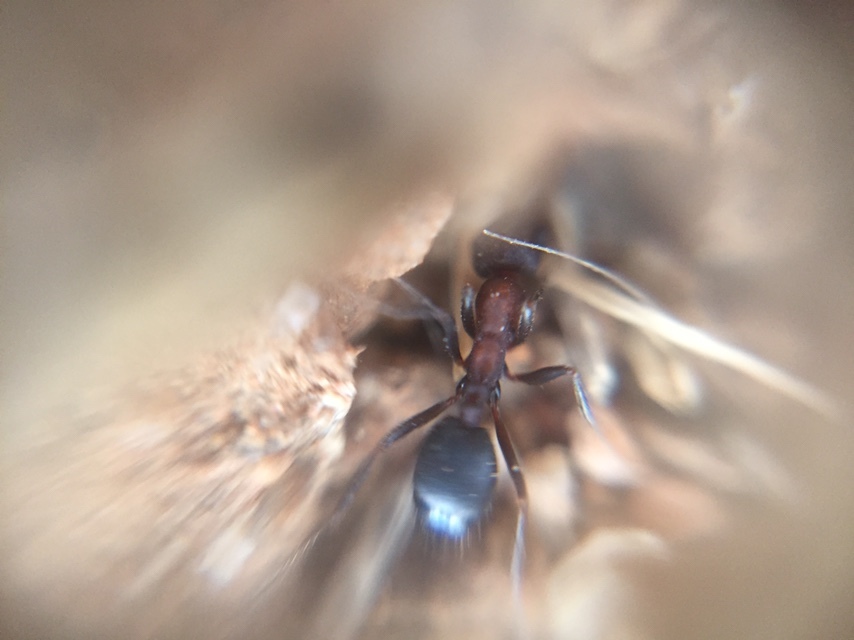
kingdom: Animalia
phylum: Arthropoda
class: Insecta
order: Hymenoptera
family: Formicidae
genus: Monomorium
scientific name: Monomorium indicum
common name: Ant
